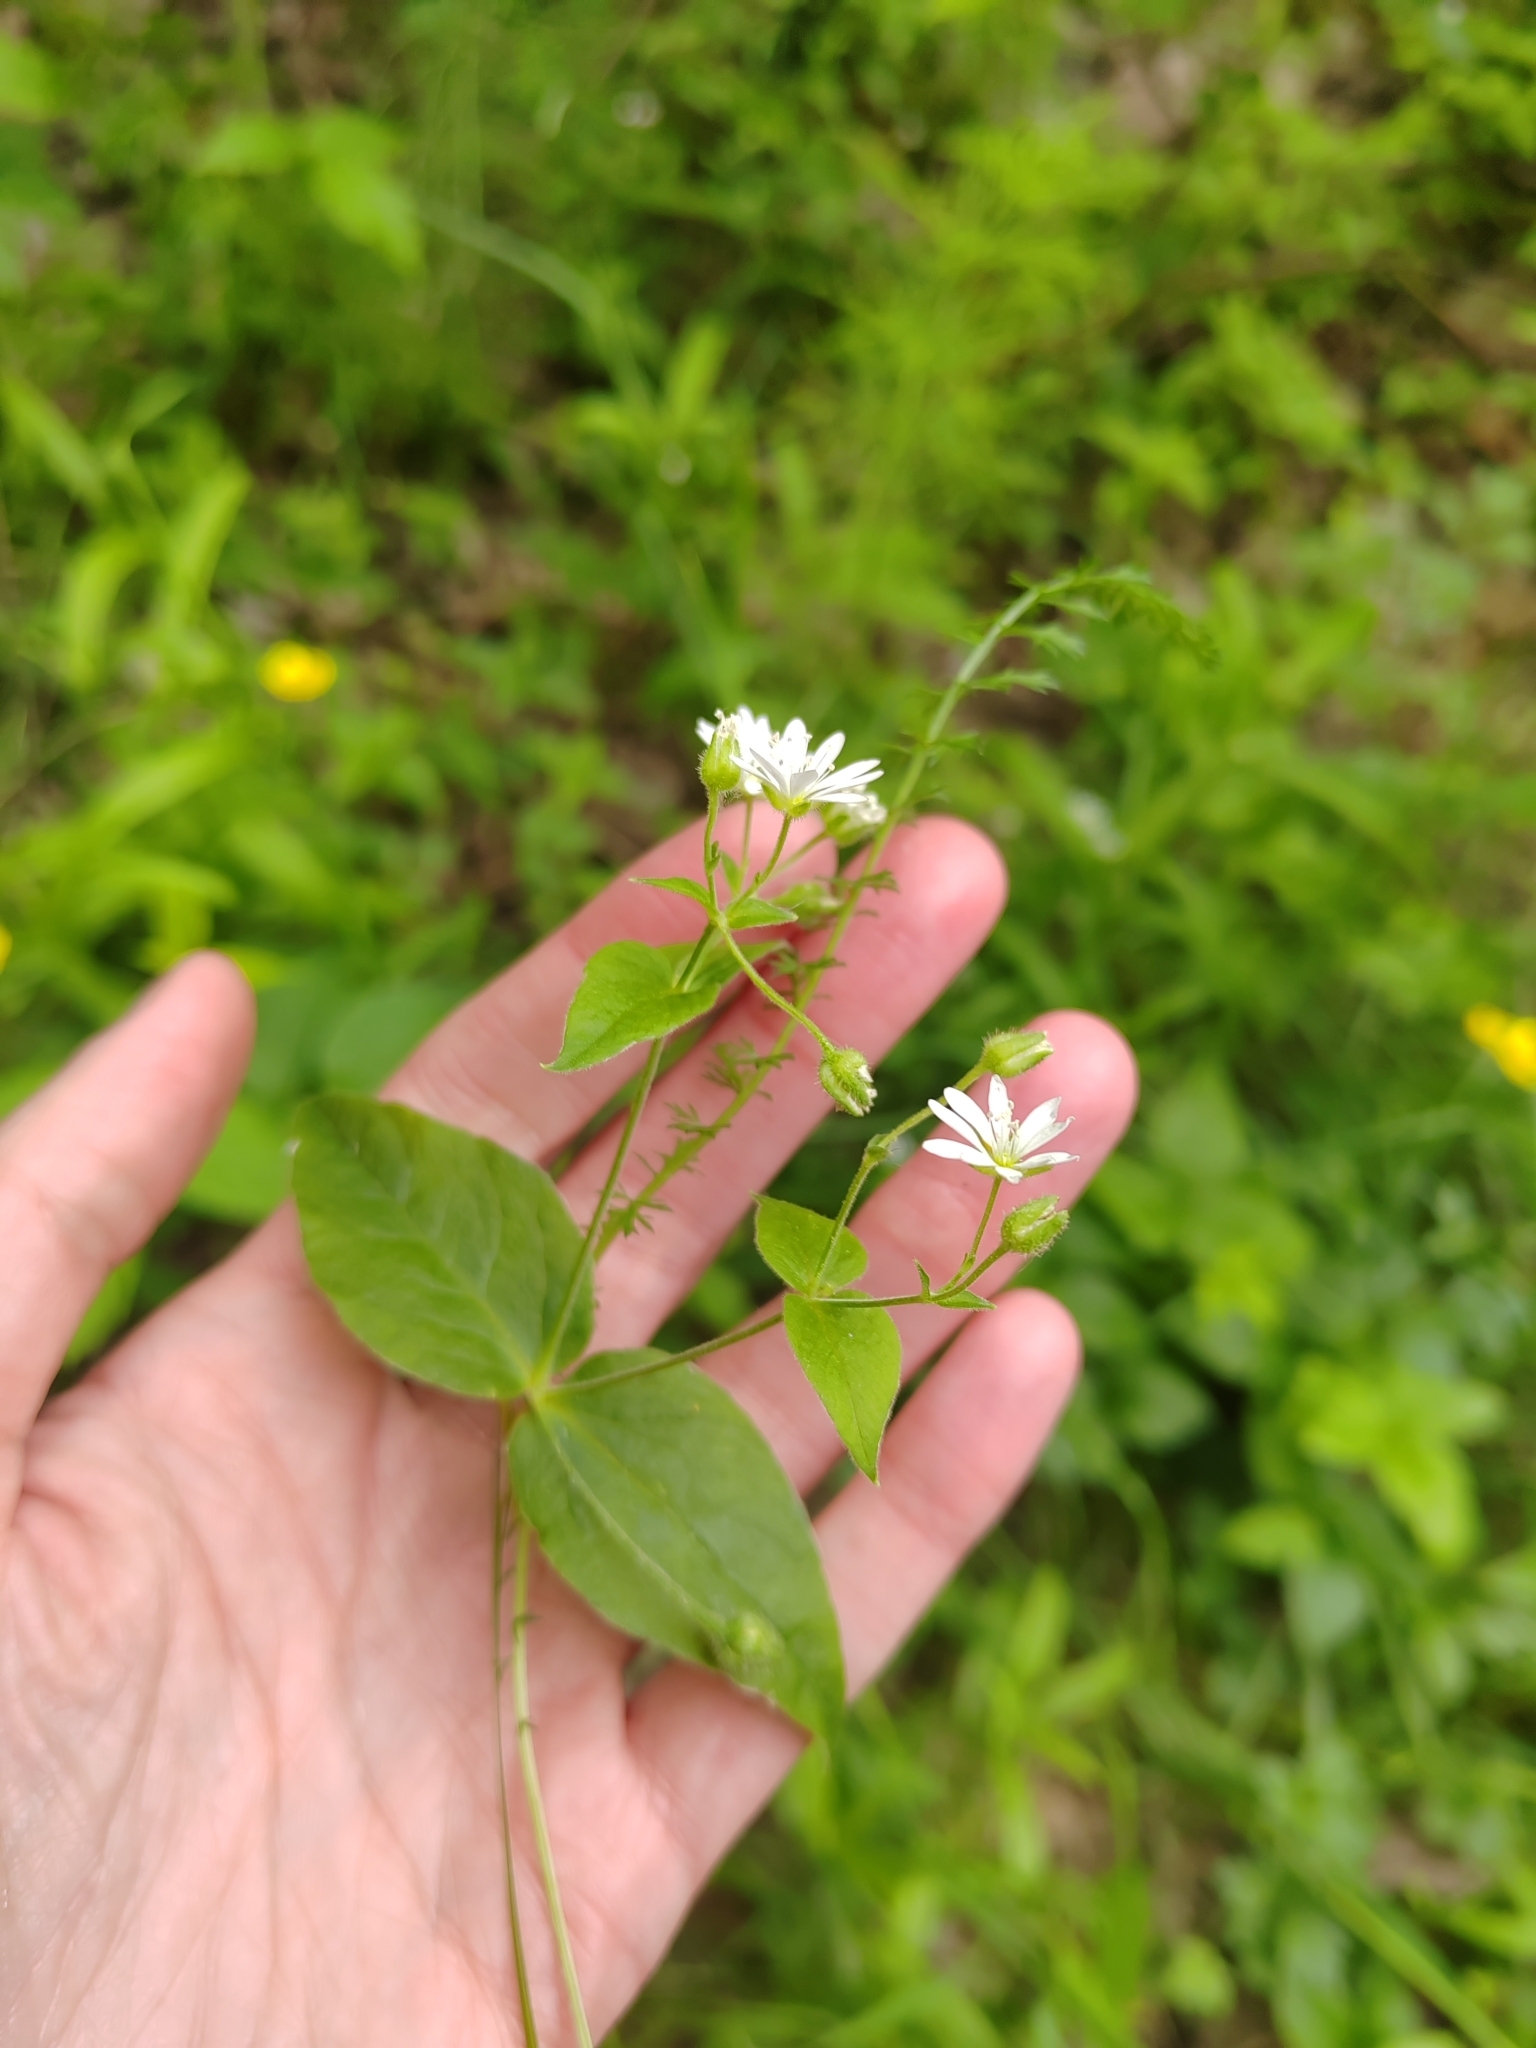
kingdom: Plantae
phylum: Tracheophyta
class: Magnoliopsida
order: Caryophyllales
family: Caryophyllaceae
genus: Stellaria
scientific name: Stellaria bungeana
